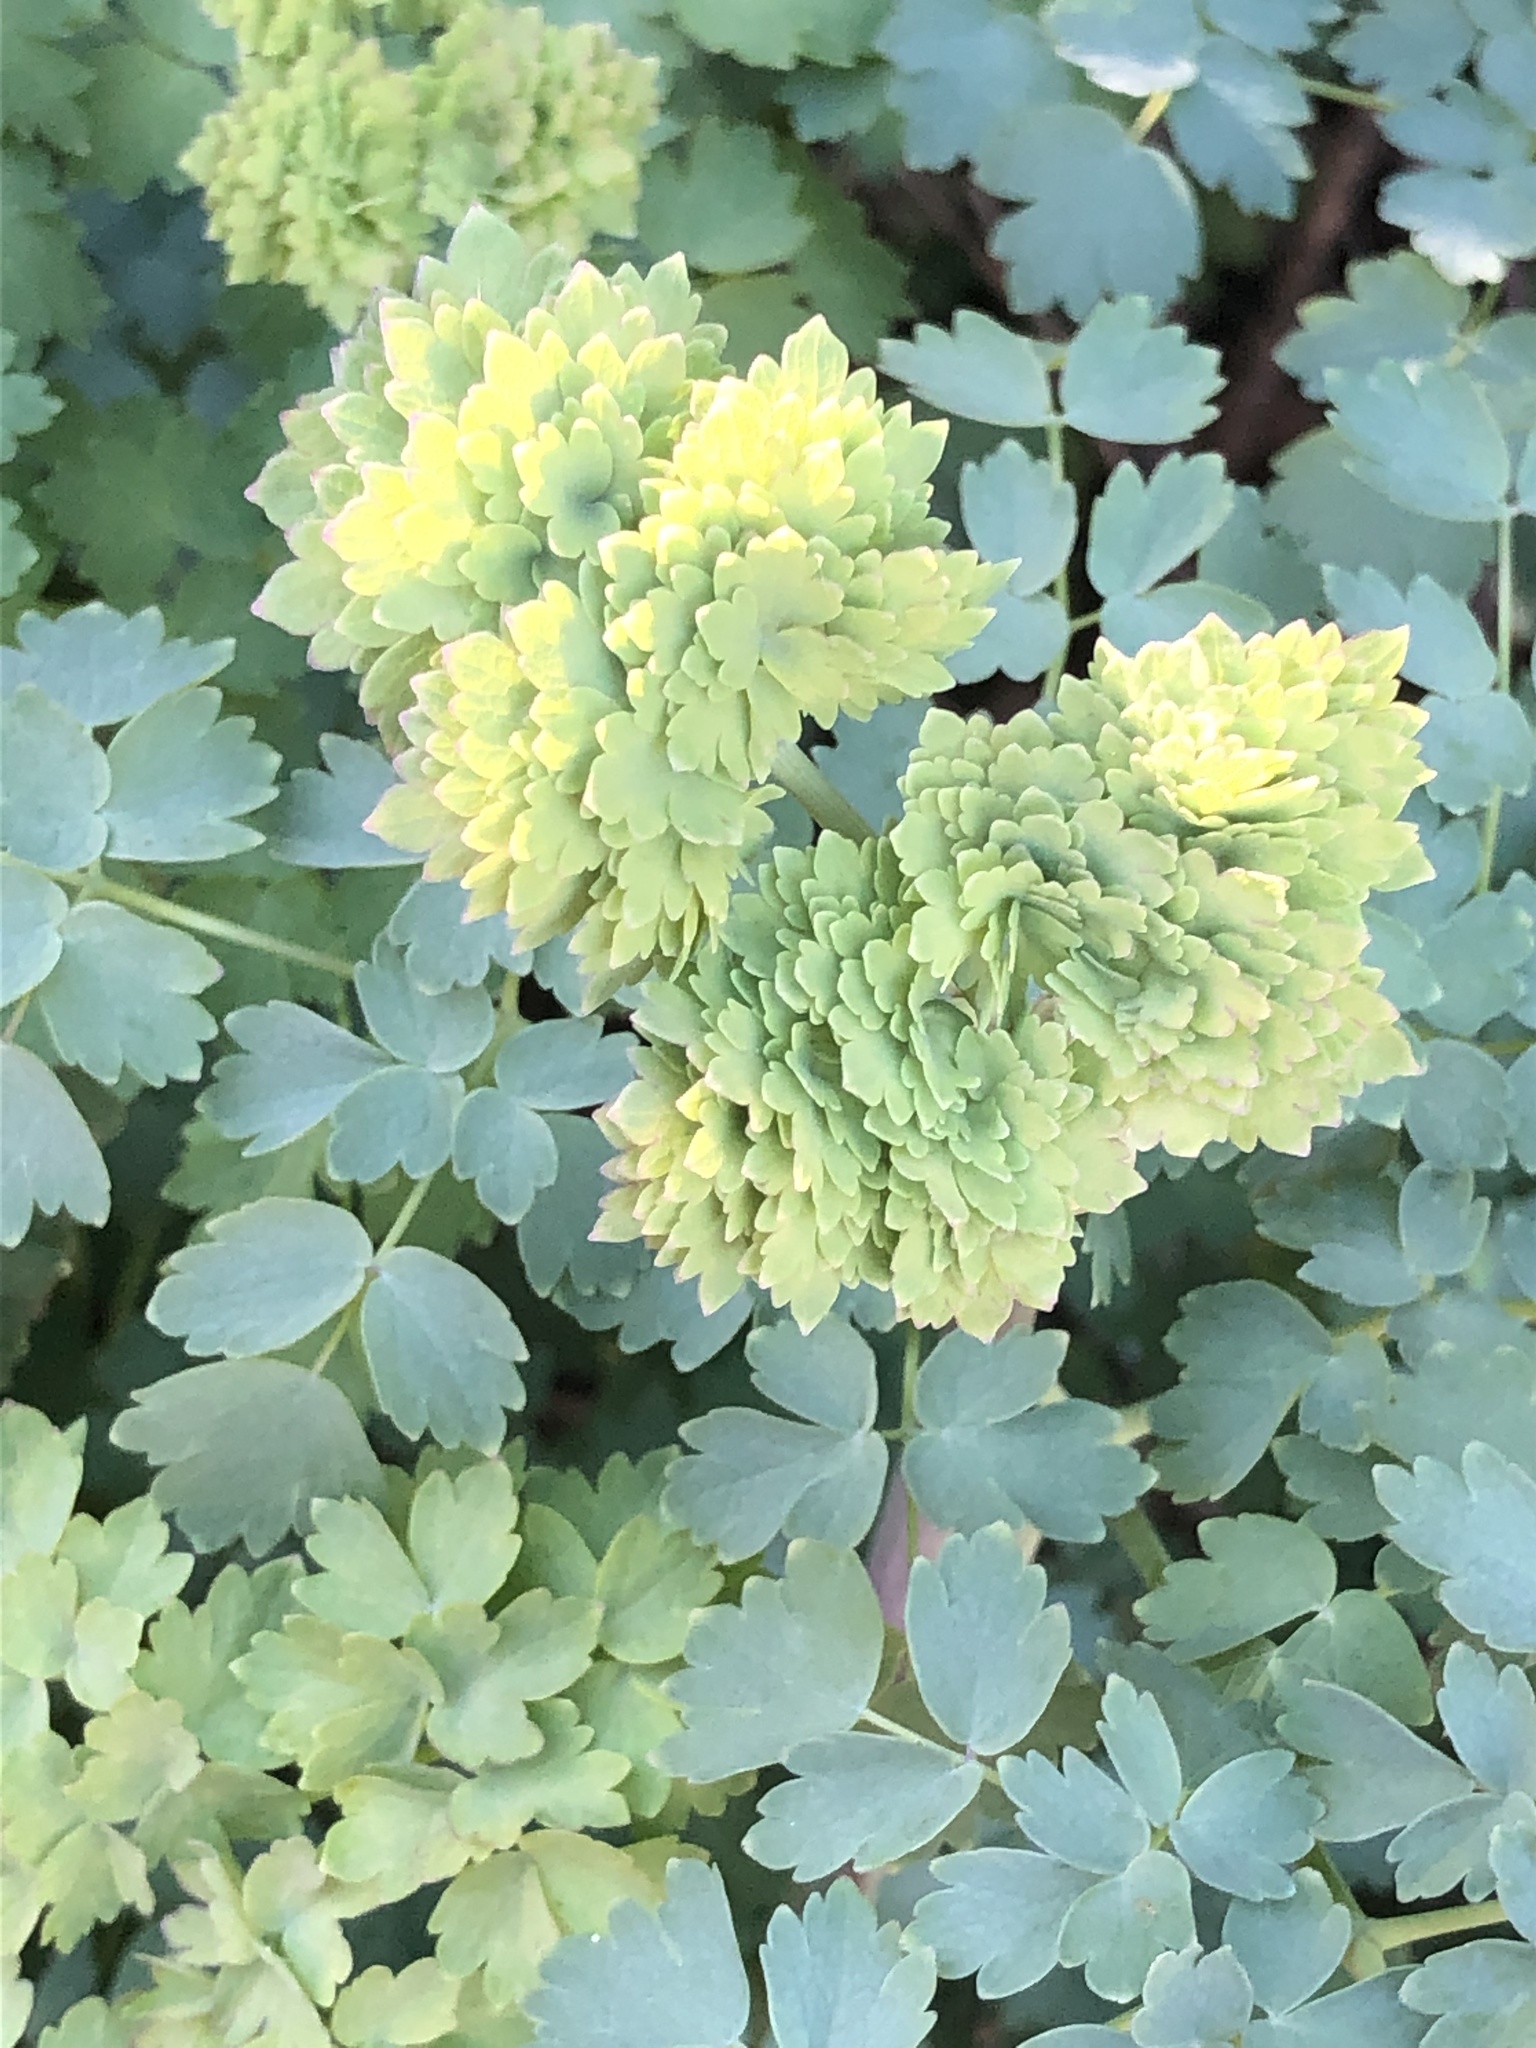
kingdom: Plantae
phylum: Tracheophyta
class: Magnoliopsida
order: Ranunculales
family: Ranunculaceae
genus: Thalictrum
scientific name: Thalictrum fendleri
